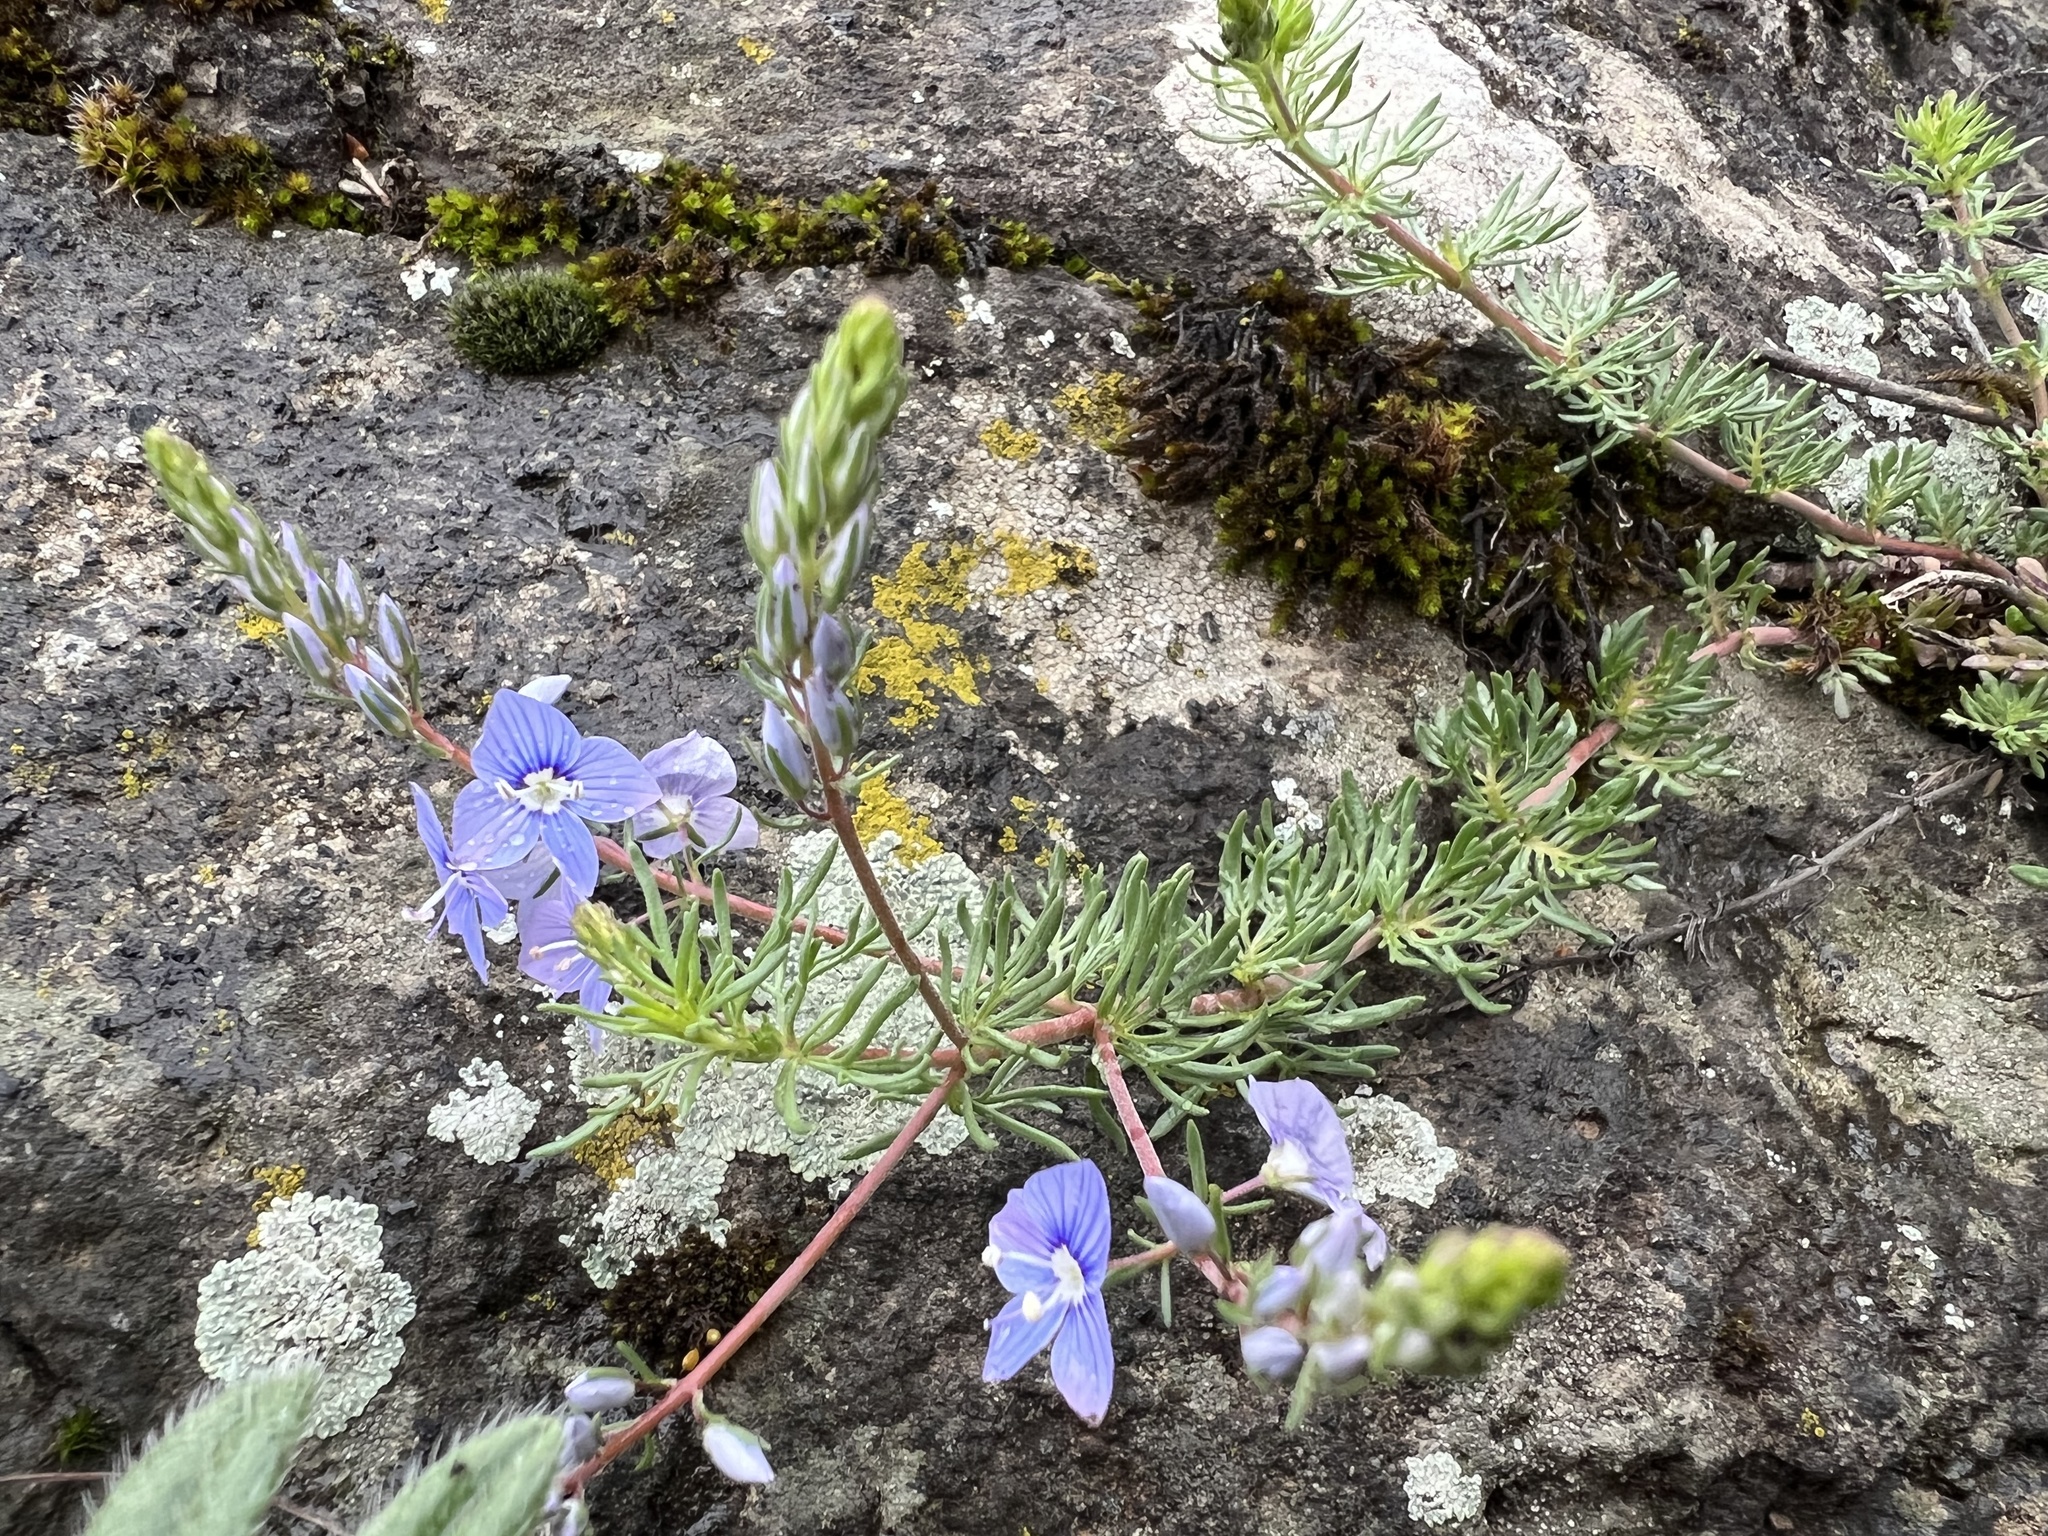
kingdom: Plantae
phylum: Tracheophyta
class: Magnoliopsida
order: Lamiales
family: Plantaginaceae
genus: Veronica
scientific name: Veronica multifida
